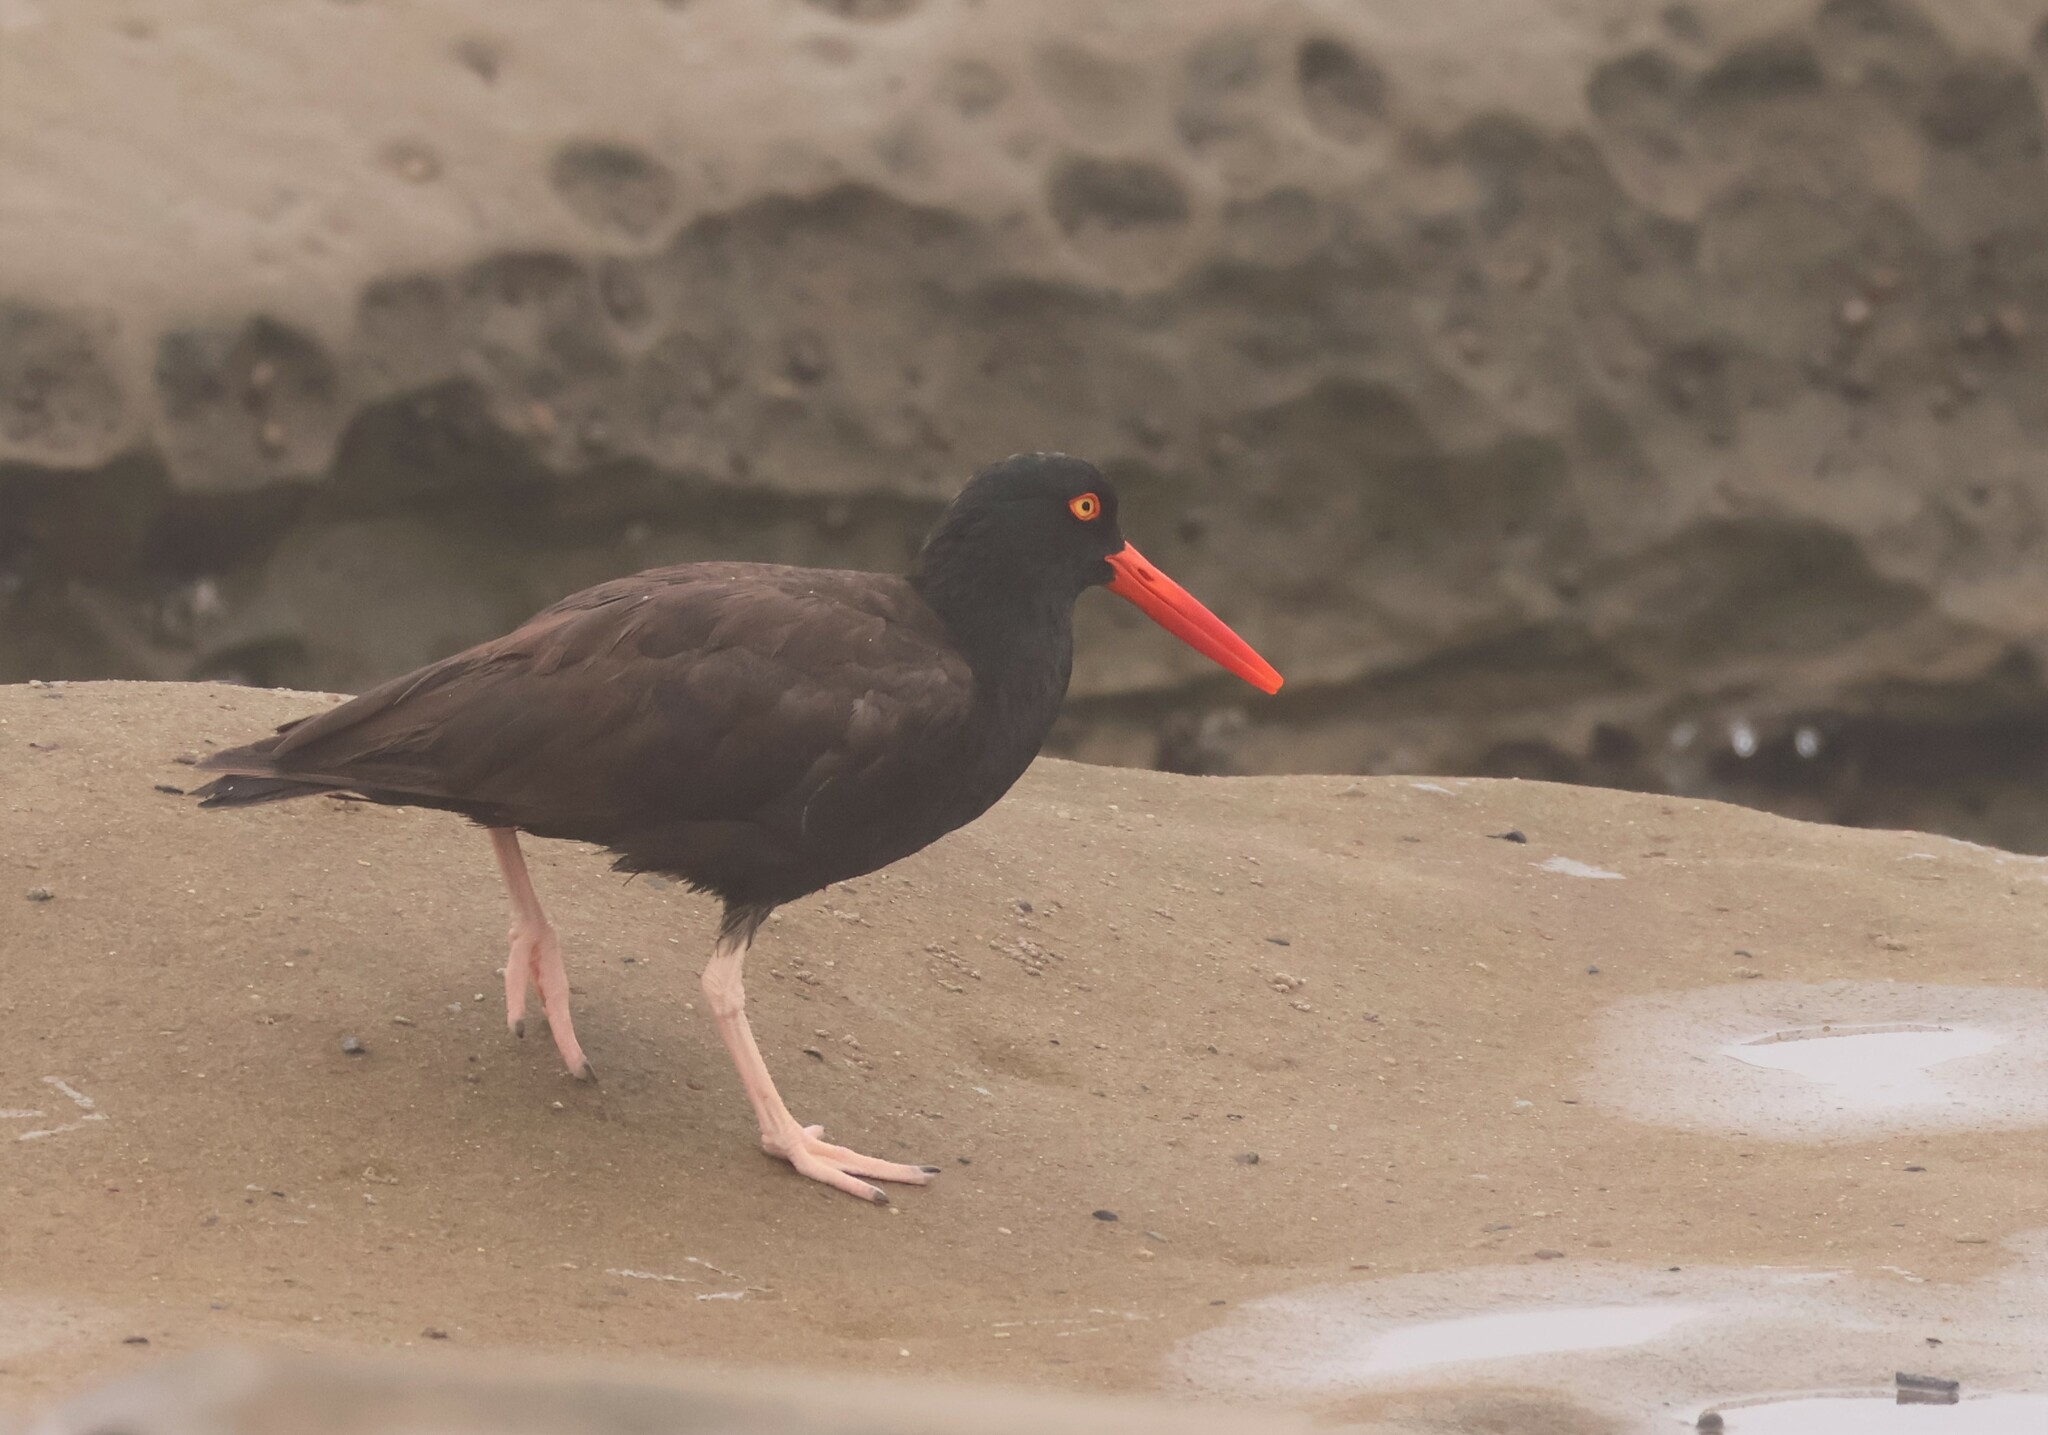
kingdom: Animalia
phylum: Chordata
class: Aves
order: Charadriiformes
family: Haematopodidae
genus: Haematopus
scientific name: Haematopus bachmani
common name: Black oystercatcher
